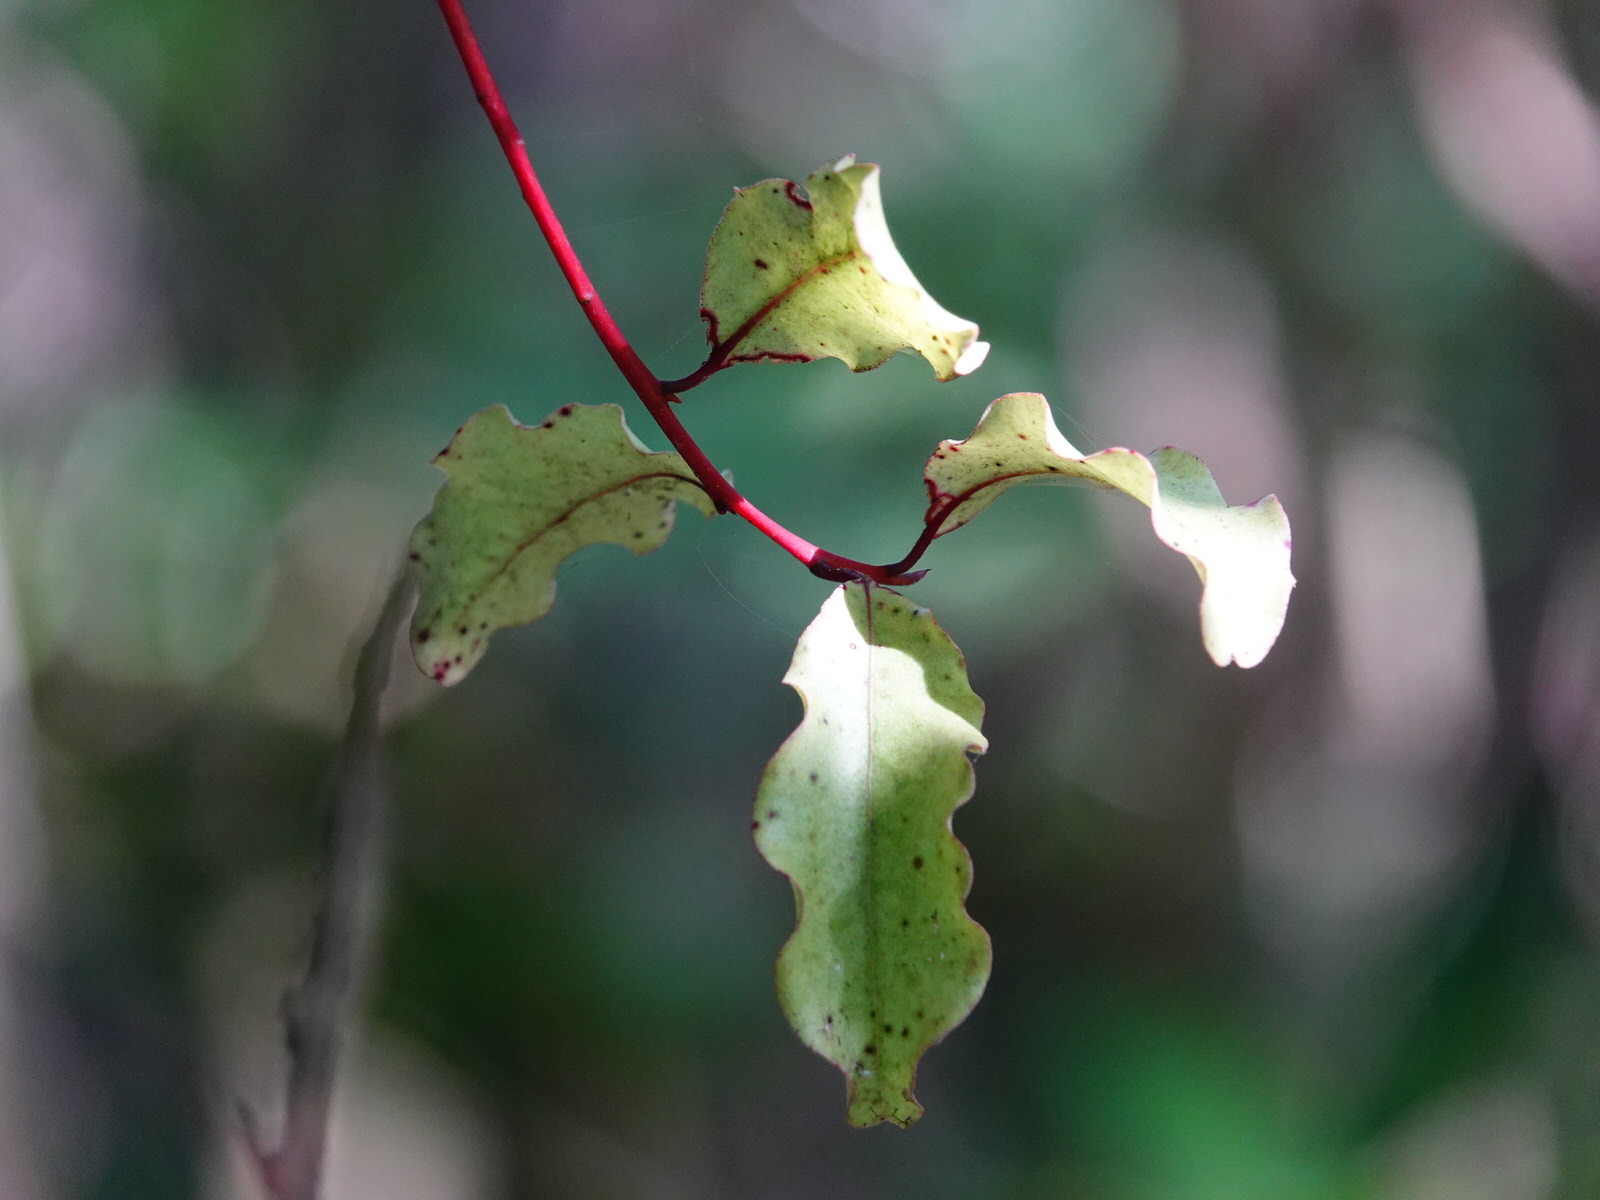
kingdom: Plantae
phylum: Tracheophyta
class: Magnoliopsida
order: Ericales
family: Primulaceae
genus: Myrsine
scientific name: Myrsine australis
